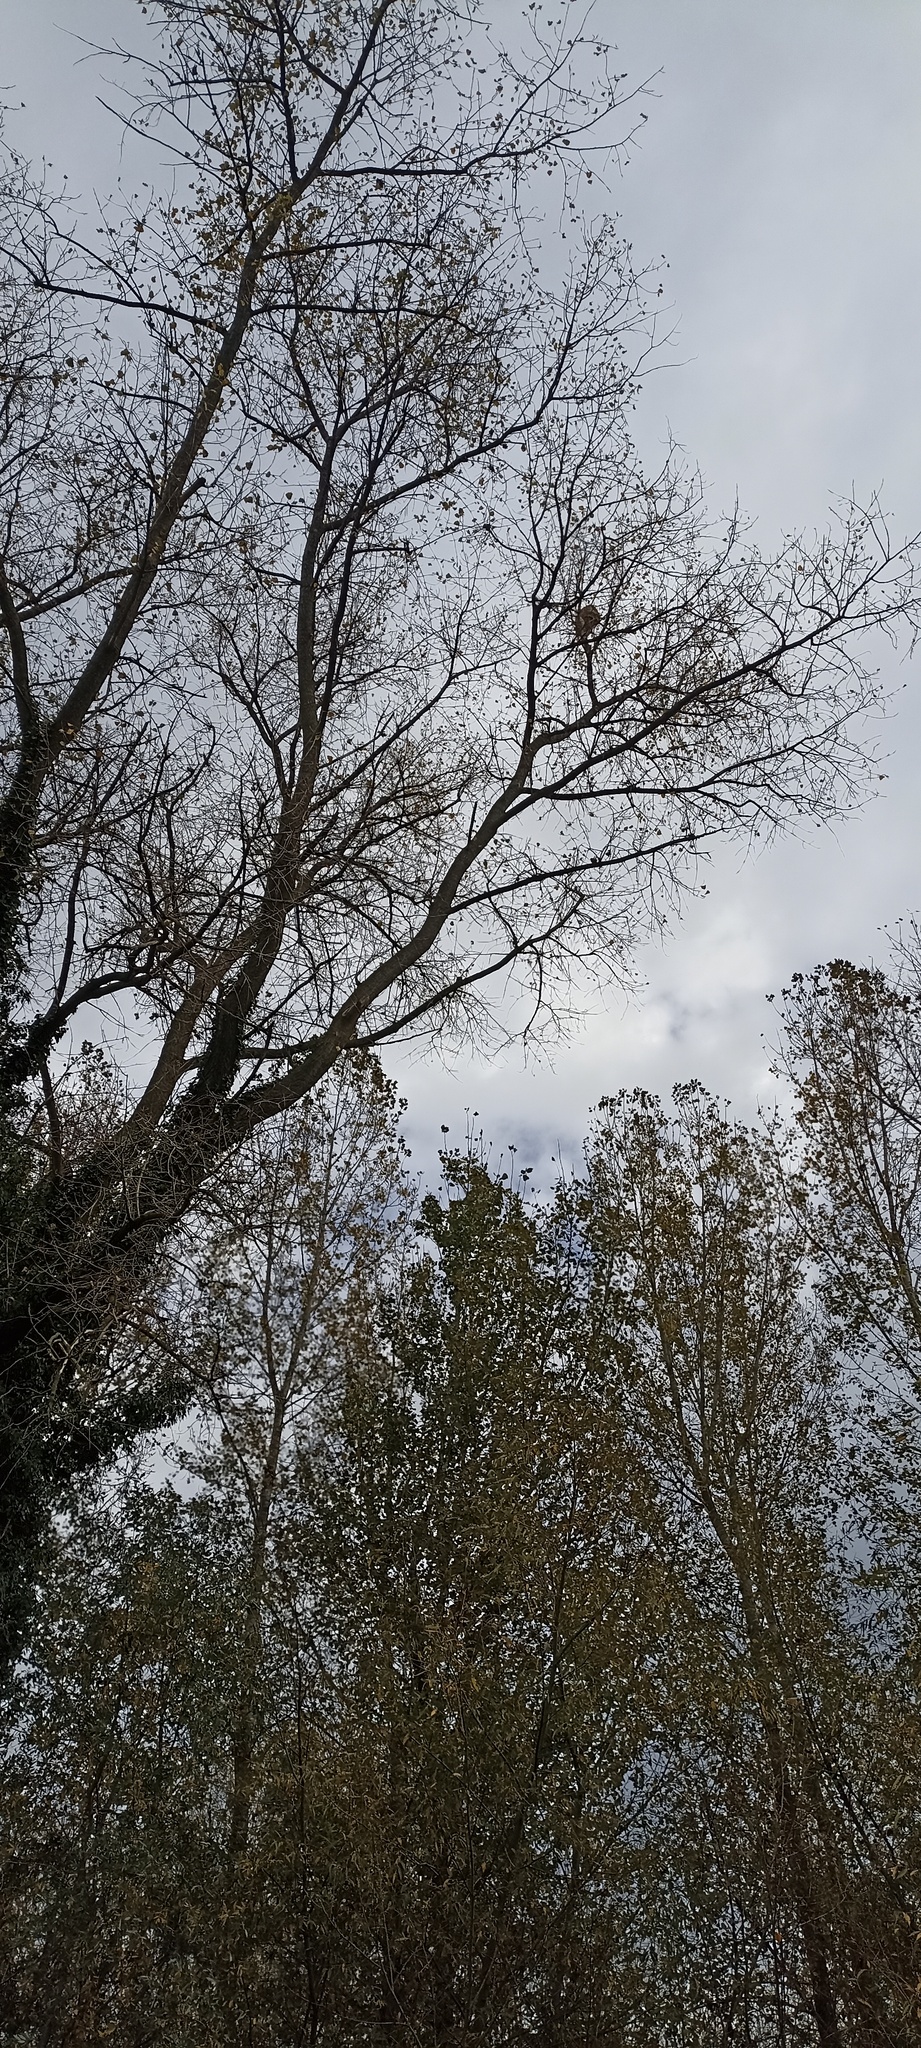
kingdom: Animalia
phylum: Arthropoda
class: Insecta
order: Hymenoptera
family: Vespidae
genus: Vespa
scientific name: Vespa velutina
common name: Asian hornet
